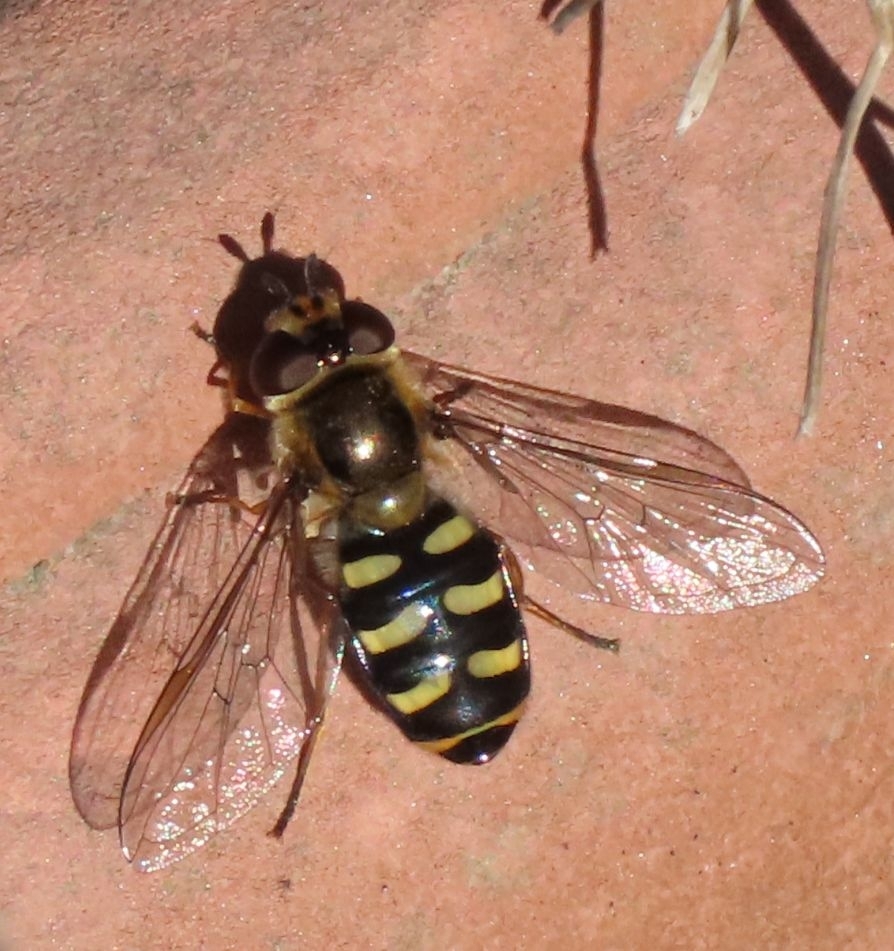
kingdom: Animalia
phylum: Arthropoda
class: Insecta
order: Diptera
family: Syrphidae
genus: Eupeodes
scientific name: Eupeodes
